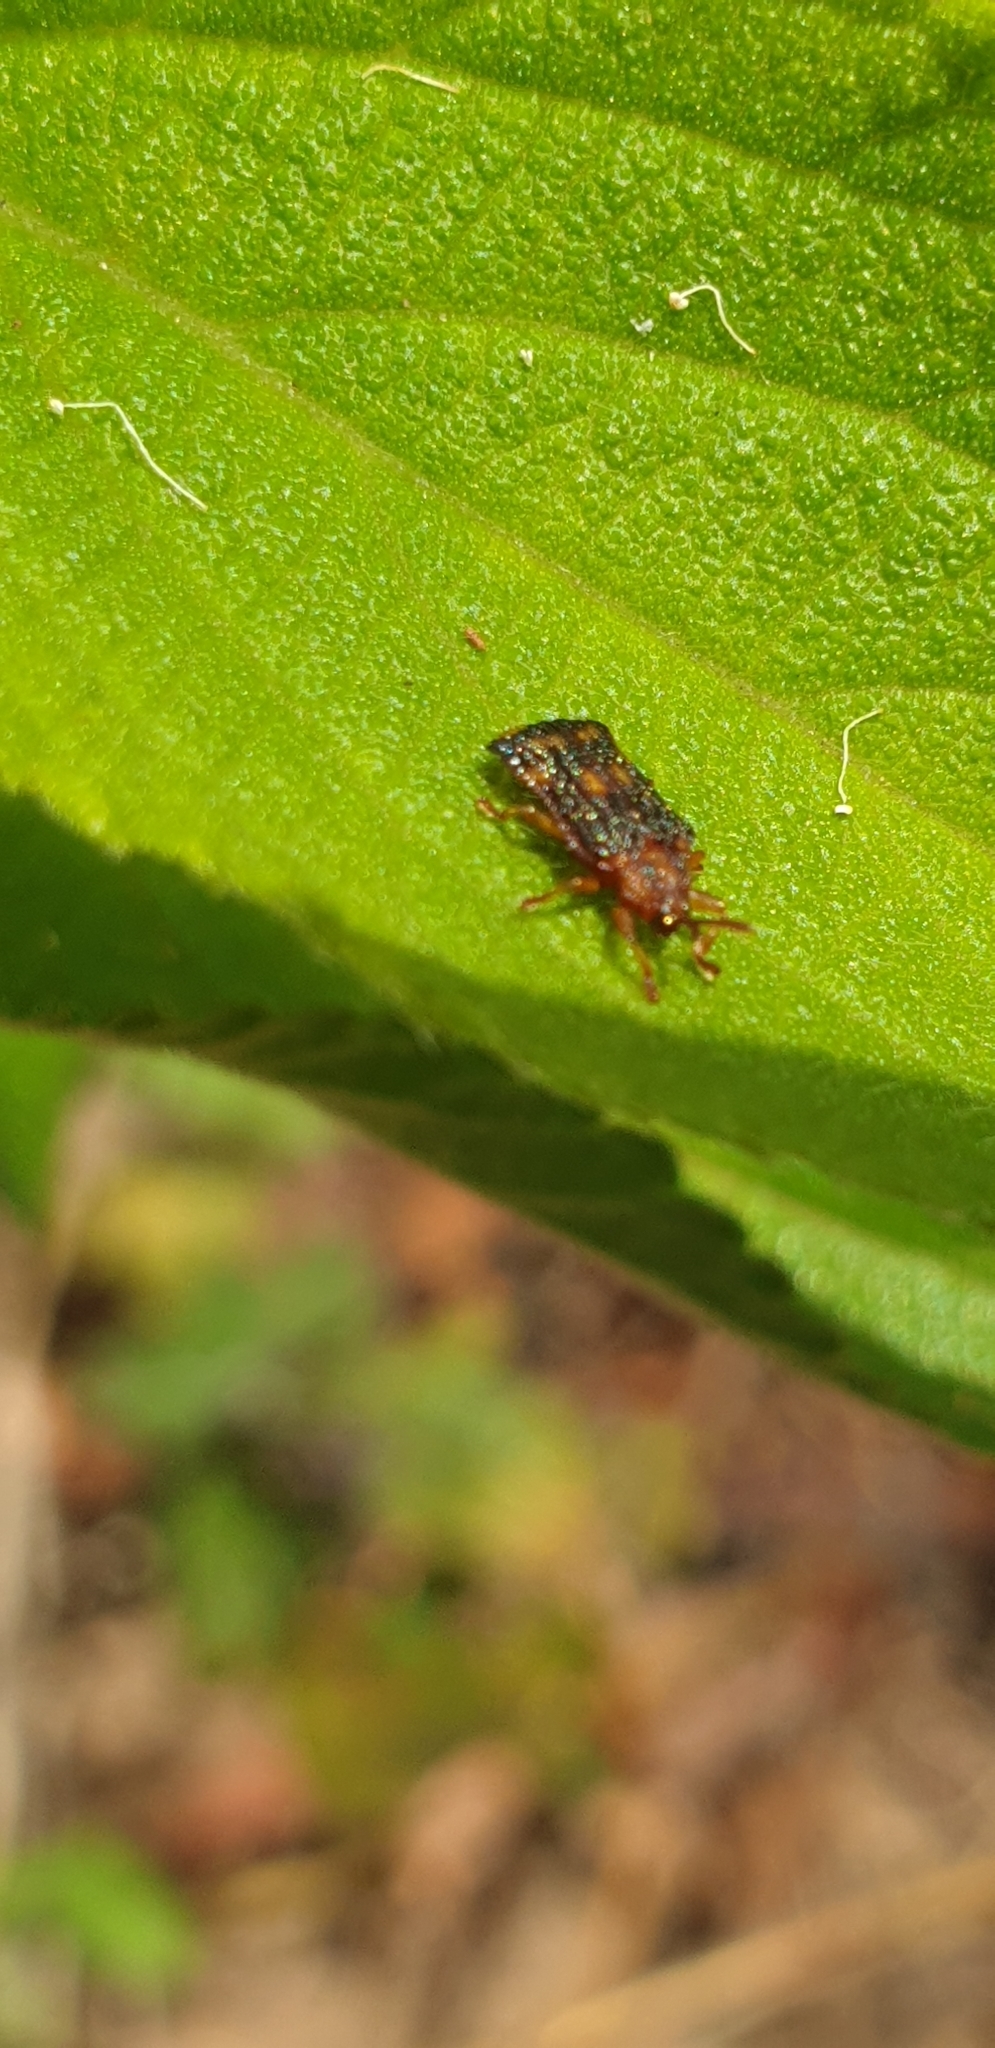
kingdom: Animalia
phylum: Arthropoda
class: Insecta
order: Coleoptera
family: Chrysomelidae
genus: Uroplata
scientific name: Uroplata girardi
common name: Lantana leafminer
